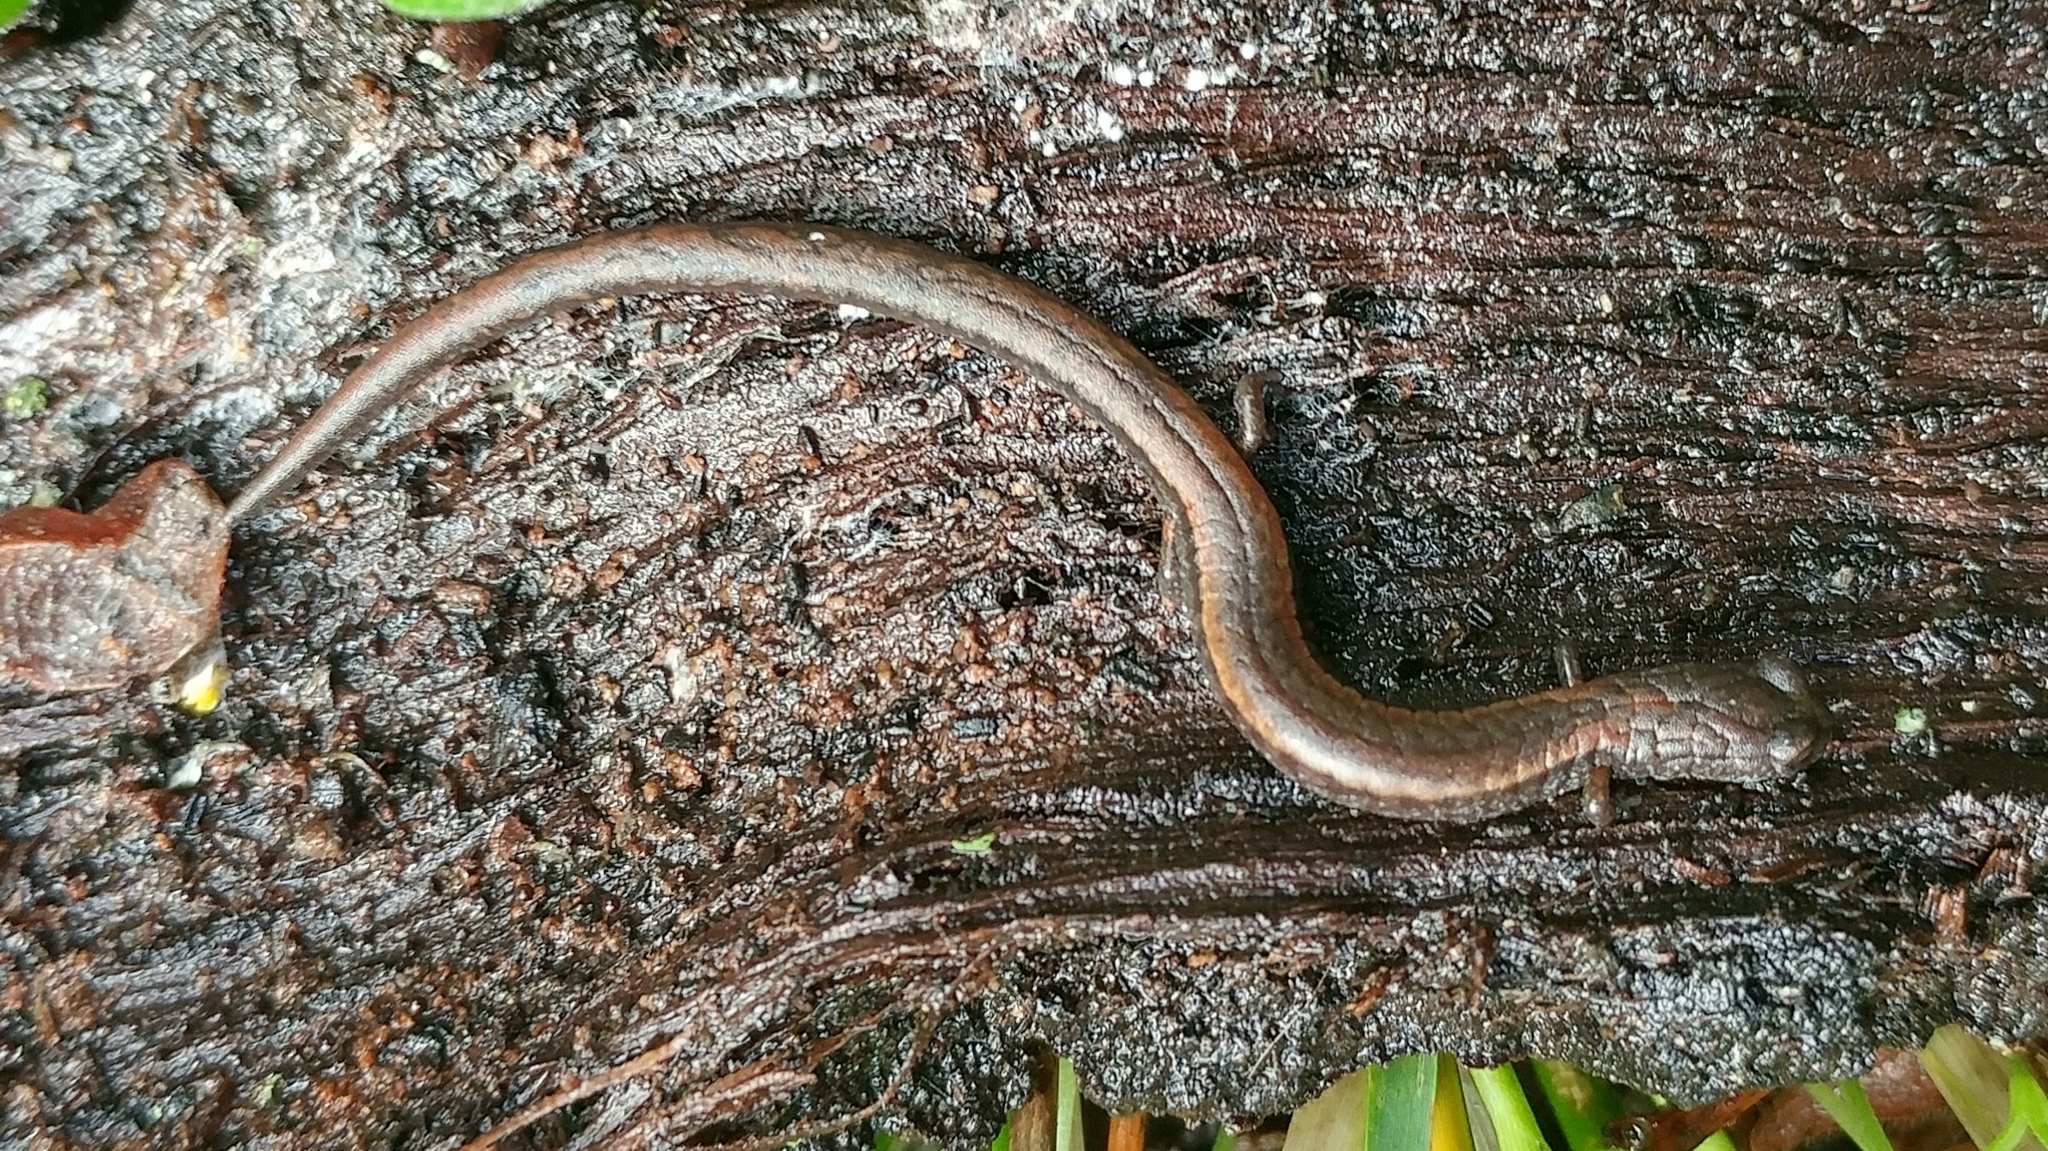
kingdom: Animalia
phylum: Chordata
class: Amphibia
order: Caudata
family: Plethodontidae
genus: Batrachoseps
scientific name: Batrachoseps nigriventris
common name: Black-bellied slender salamander
